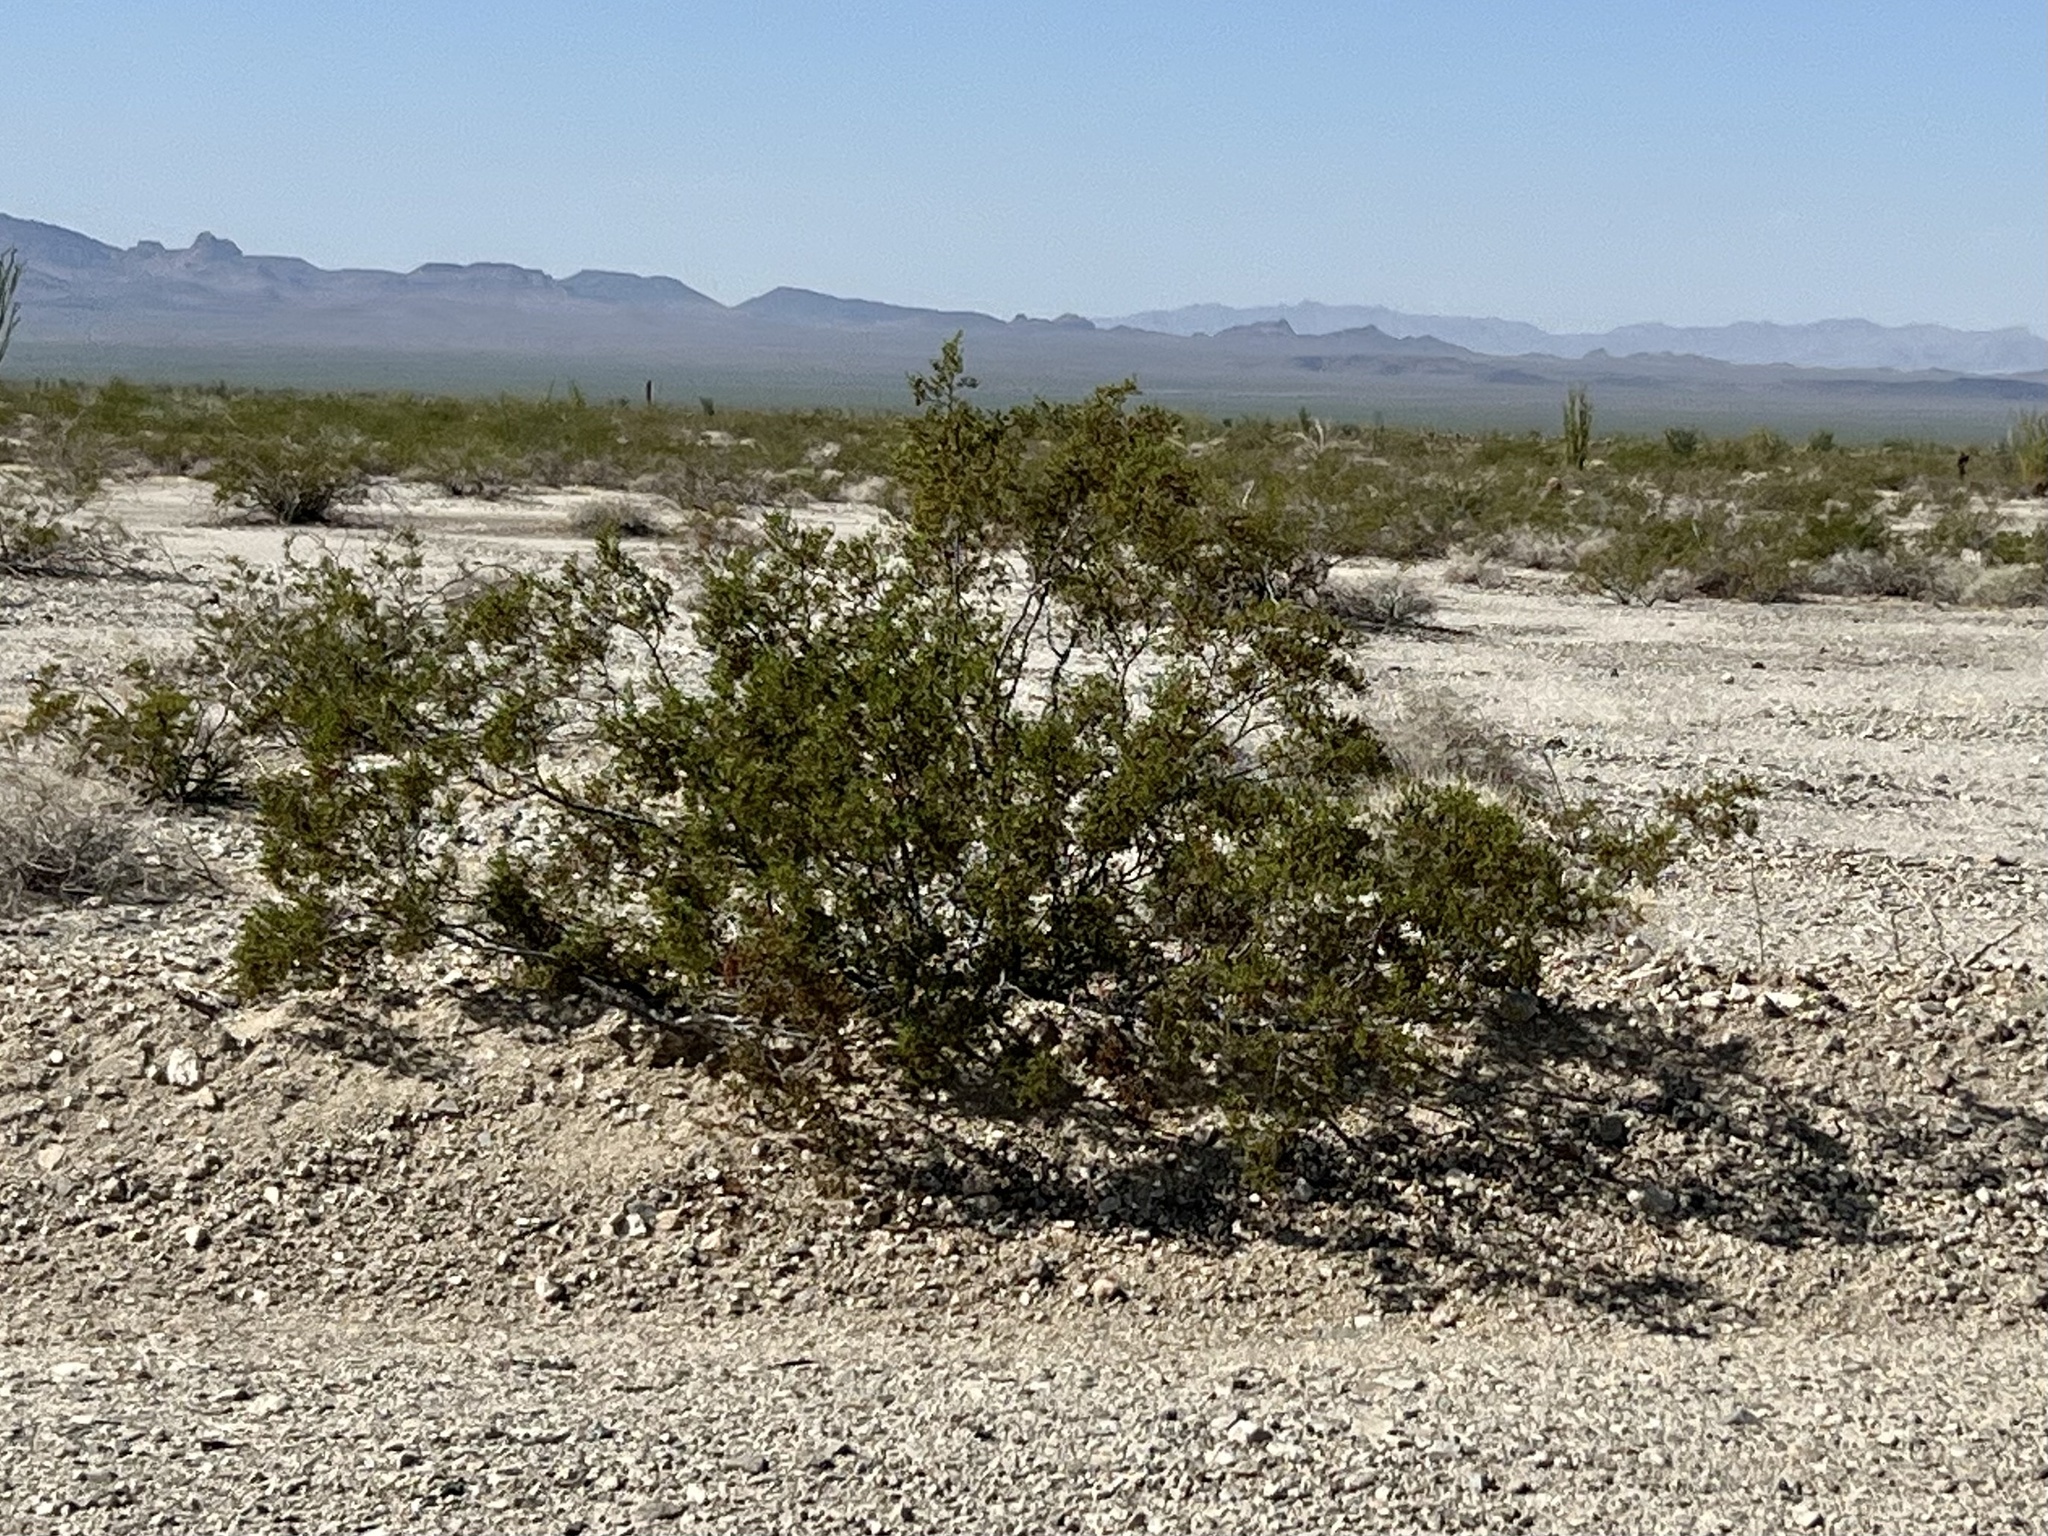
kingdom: Plantae
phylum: Tracheophyta
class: Magnoliopsida
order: Zygophyllales
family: Zygophyllaceae
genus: Larrea
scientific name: Larrea tridentata
